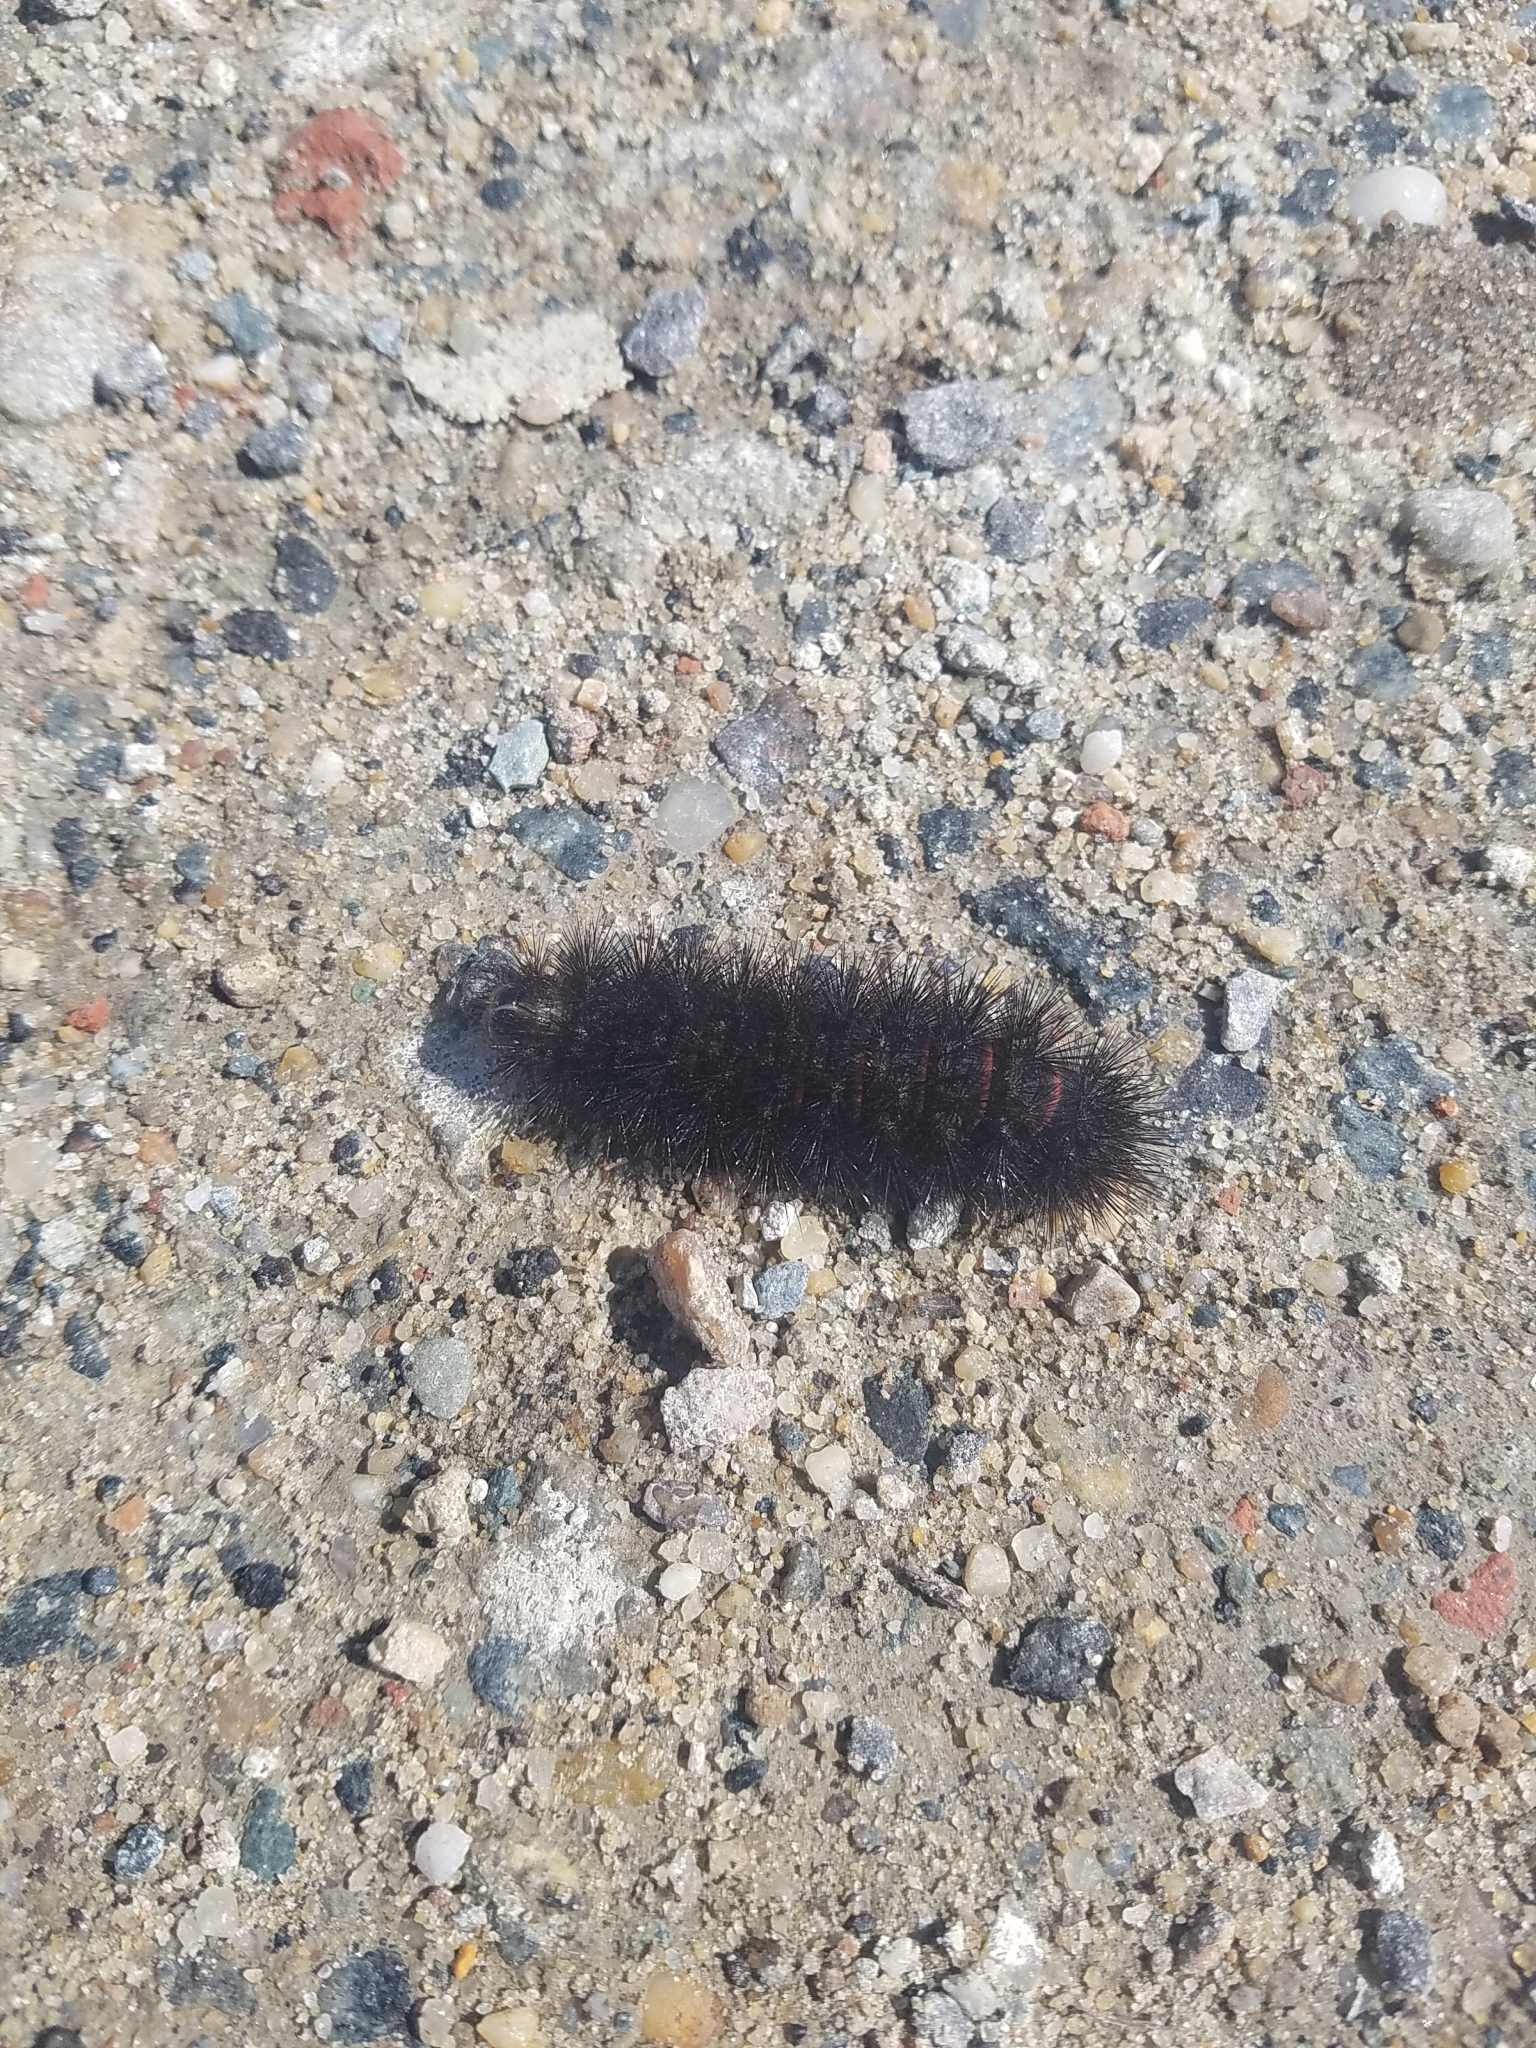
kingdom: Animalia
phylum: Arthropoda
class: Insecta
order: Lepidoptera
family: Erebidae
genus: Hypercompe
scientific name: Hypercompe scribonia
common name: Giant leopard moth
